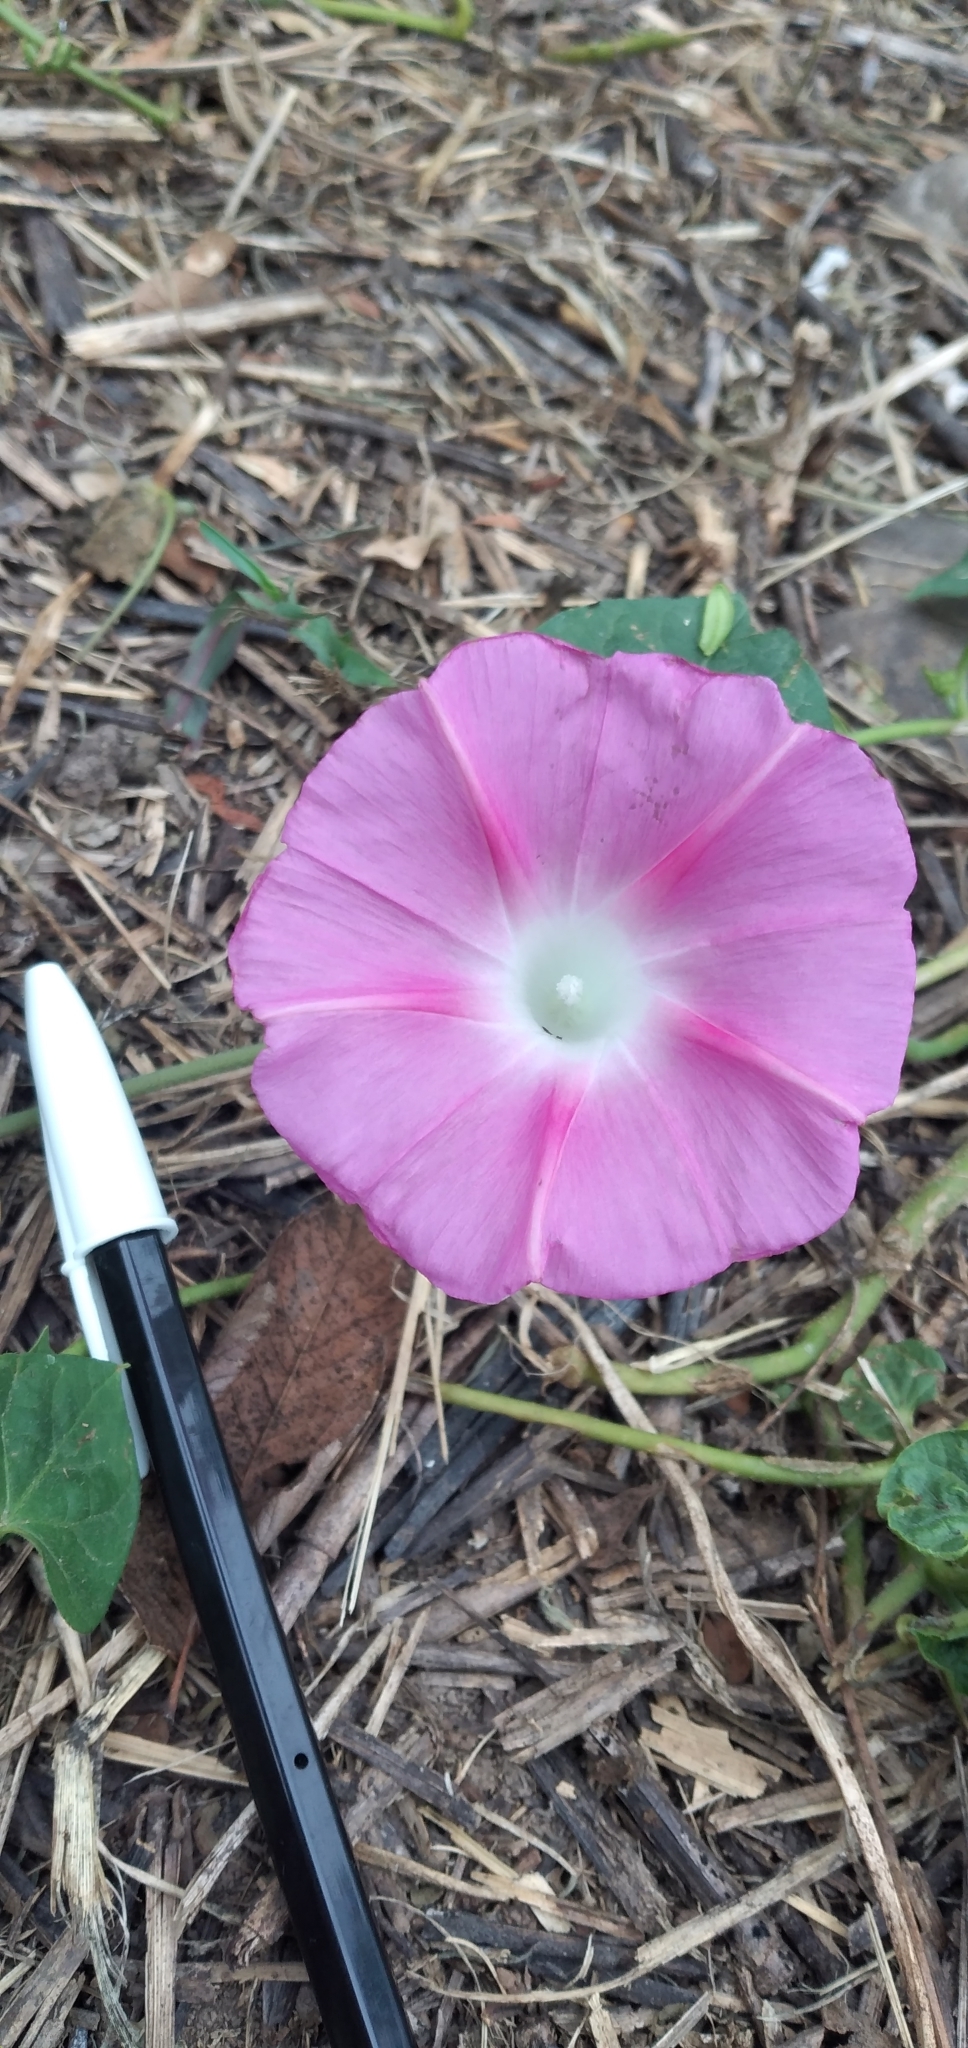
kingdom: Plantae
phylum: Tracheophyta
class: Magnoliopsida
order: Solanales
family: Convolvulaceae
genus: Ipomoea
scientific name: Ipomoea purpurea
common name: Common morning-glory
